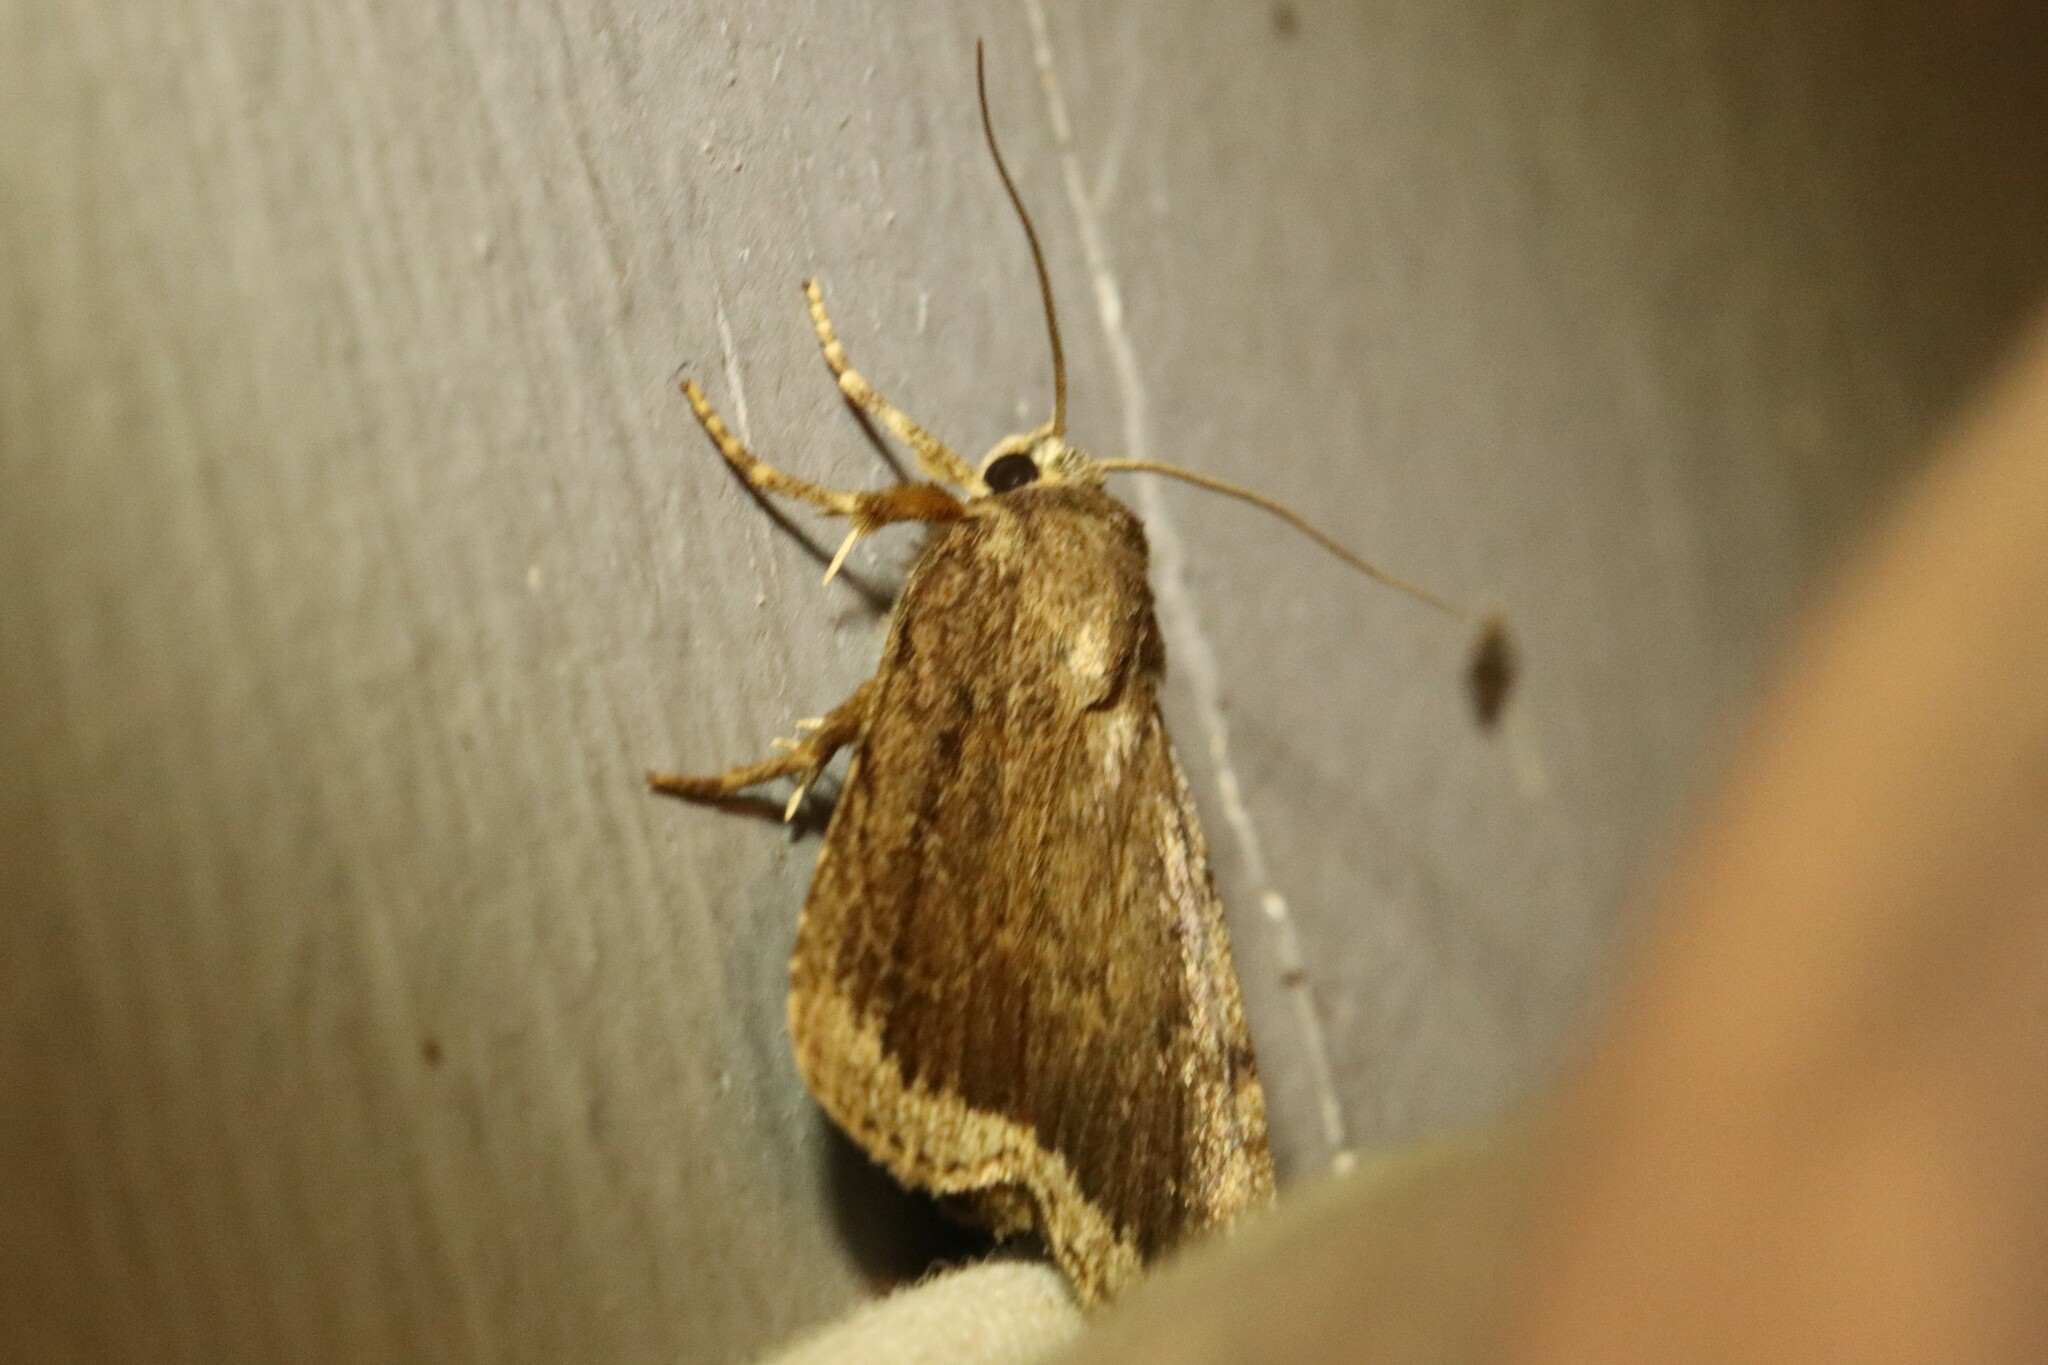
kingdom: Animalia
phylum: Arthropoda
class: Insecta
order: Lepidoptera
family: Noctuidae
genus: Amphipyra
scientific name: Amphipyra glabella
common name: Smooth amphipyra moth
